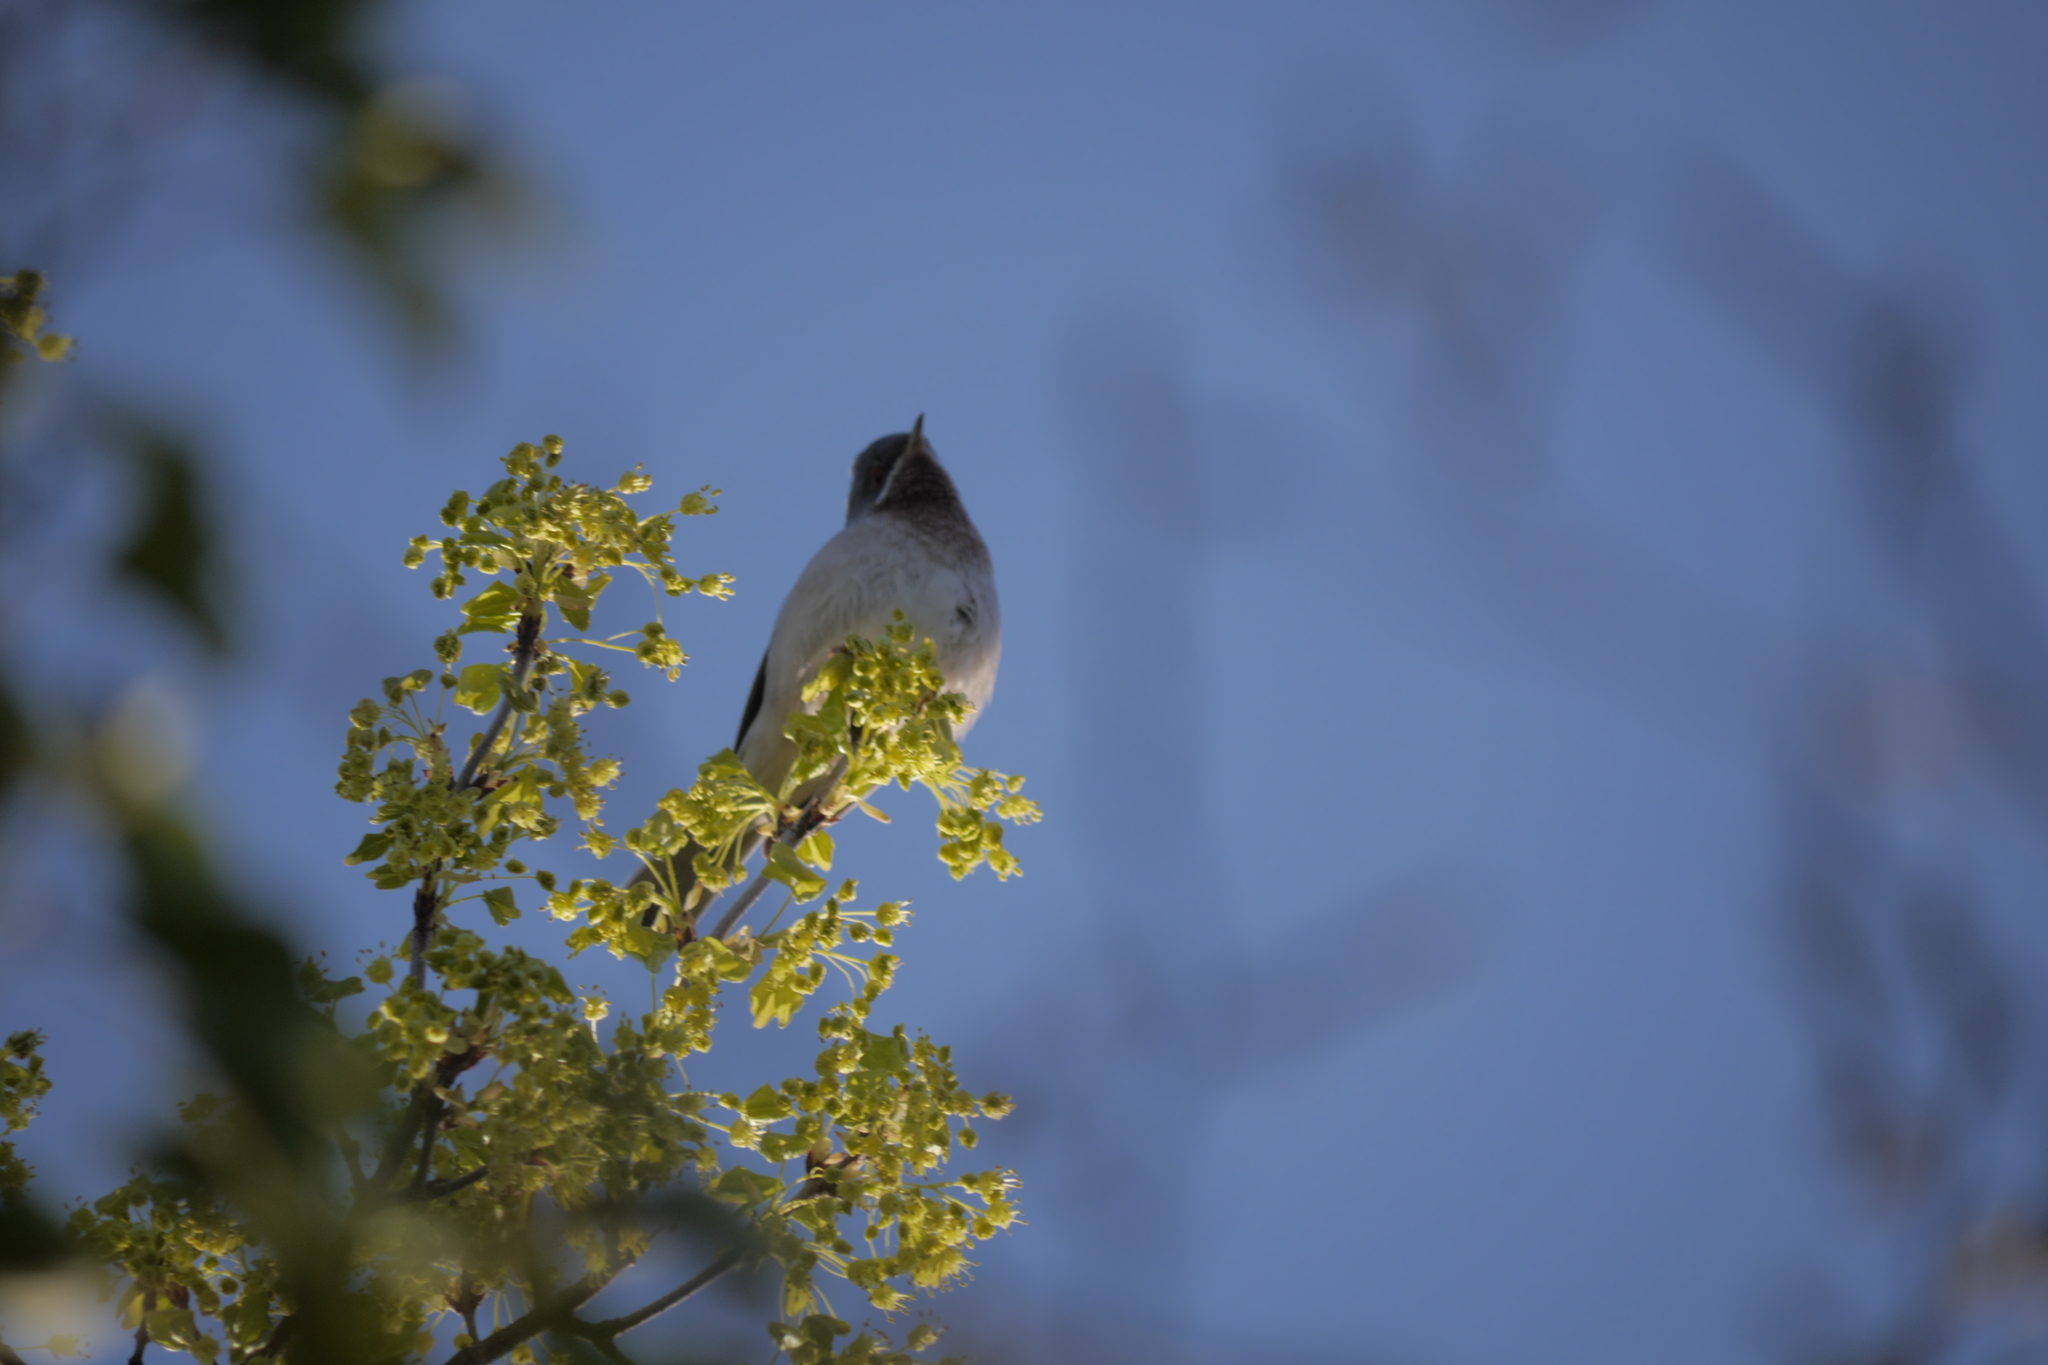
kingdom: Animalia
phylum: Chordata
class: Aves
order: Passeriformes
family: Sylviidae
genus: Curruca
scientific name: Curruca cantillans
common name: Subalpine warbler
